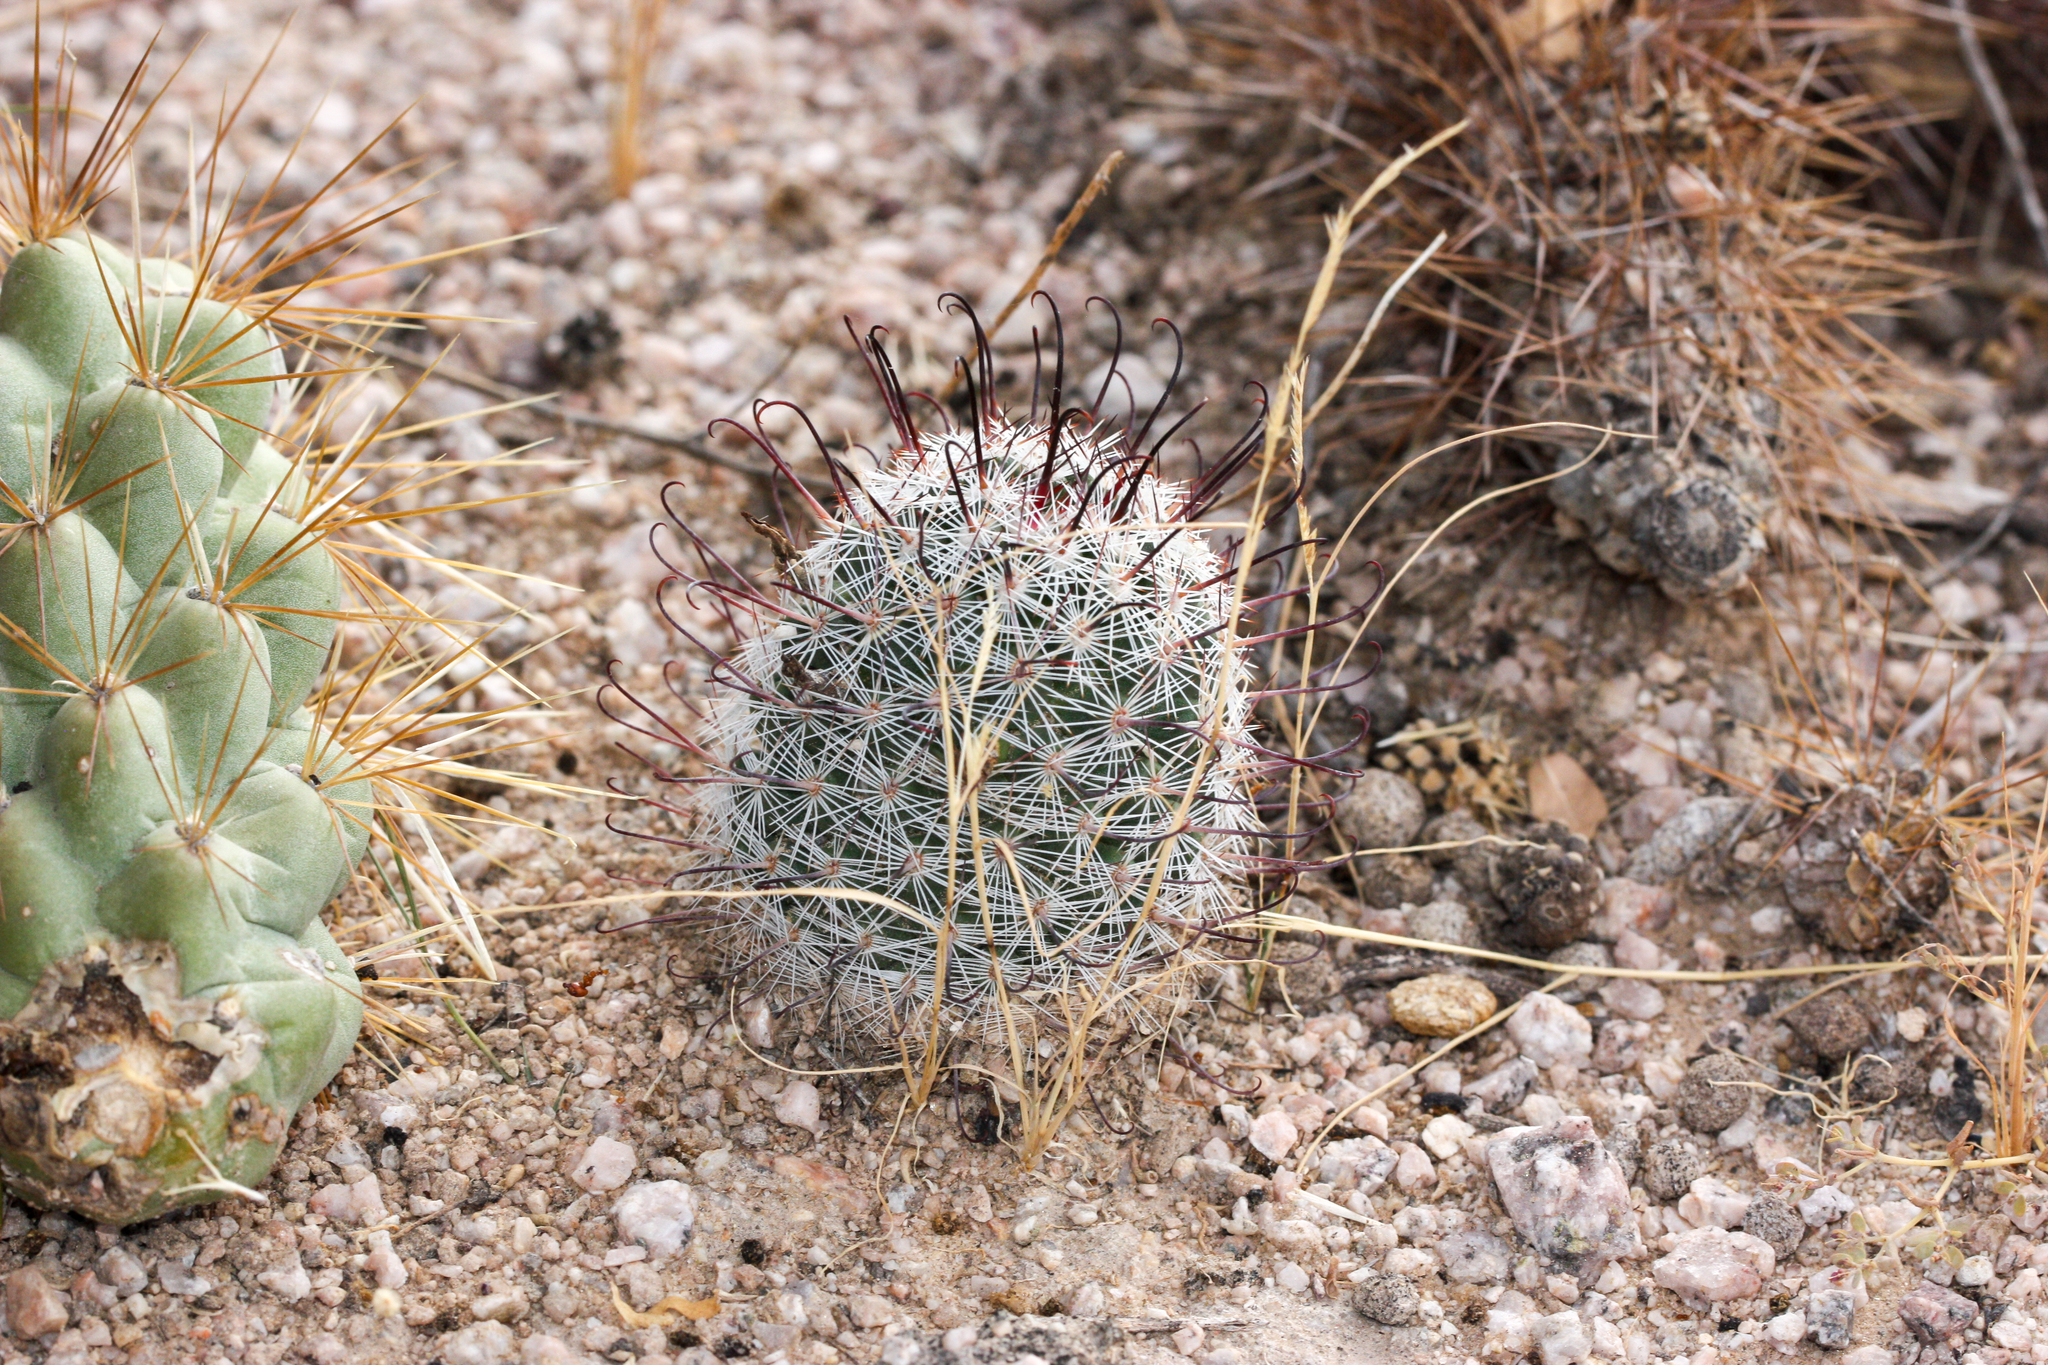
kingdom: Plantae
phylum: Tracheophyta
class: Magnoliopsida
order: Caryophyllales
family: Cactaceae
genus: Cochemiea
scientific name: Cochemiea grahamii
